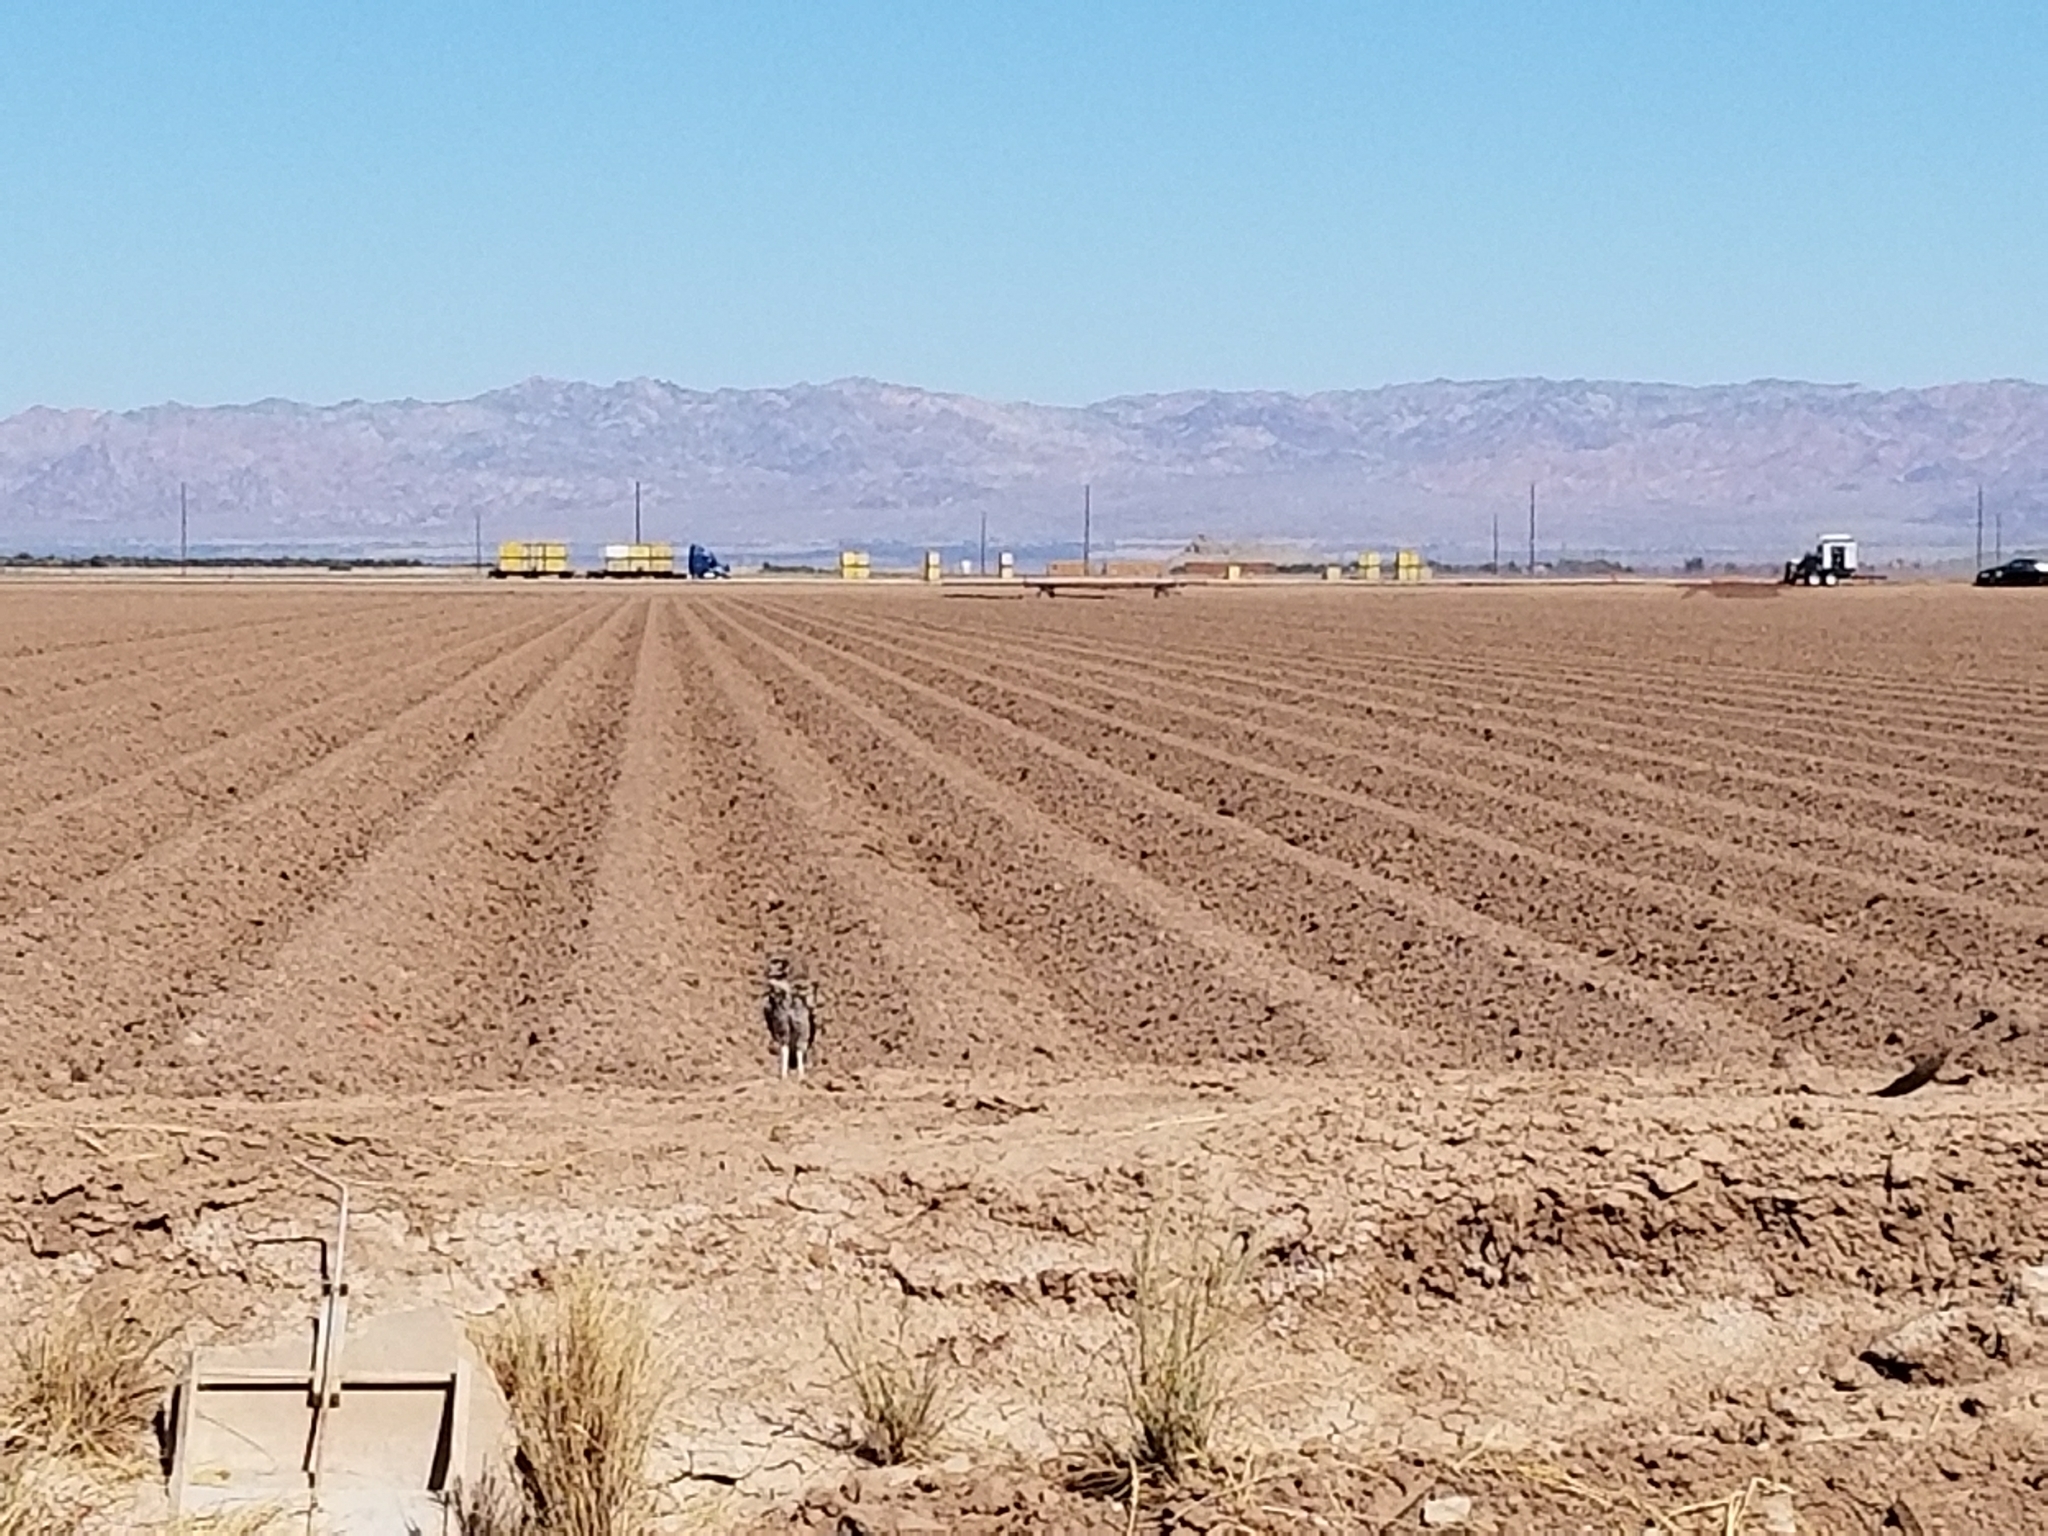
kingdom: Animalia
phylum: Chordata
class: Aves
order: Strigiformes
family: Strigidae
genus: Athene
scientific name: Athene cunicularia
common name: Burrowing owl
